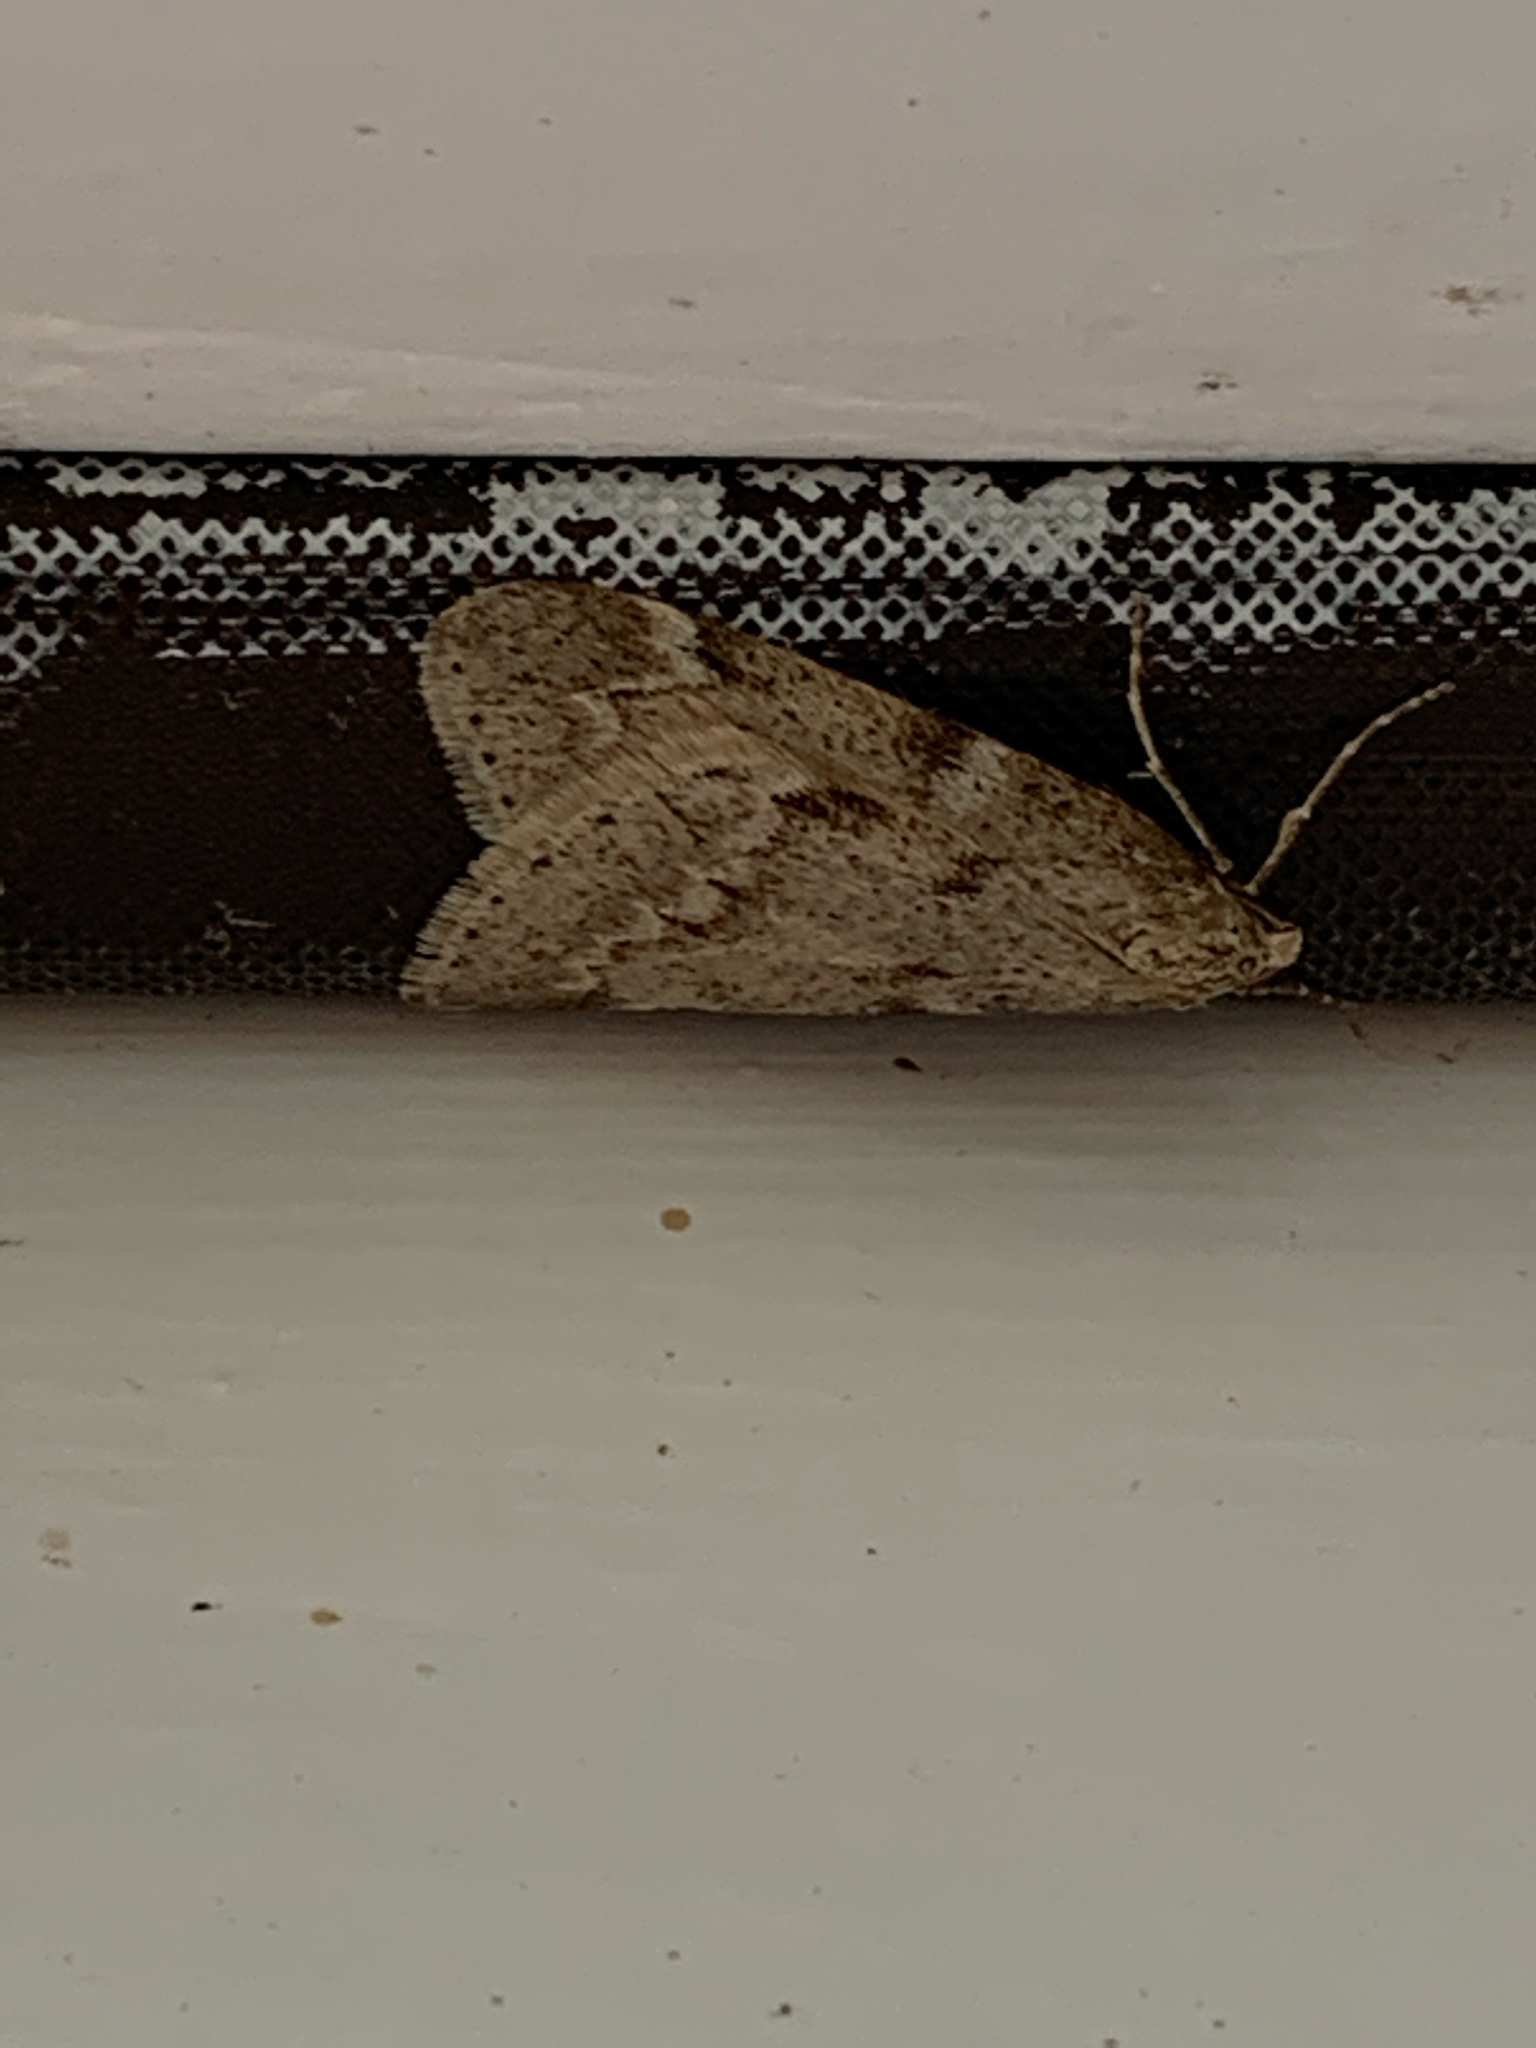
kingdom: Animalia
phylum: Arthropoda
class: Insecta
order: Lepidoptera
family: Geometridae
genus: Alsophila
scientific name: Alsophila pometaria
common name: Fall cankerworm
